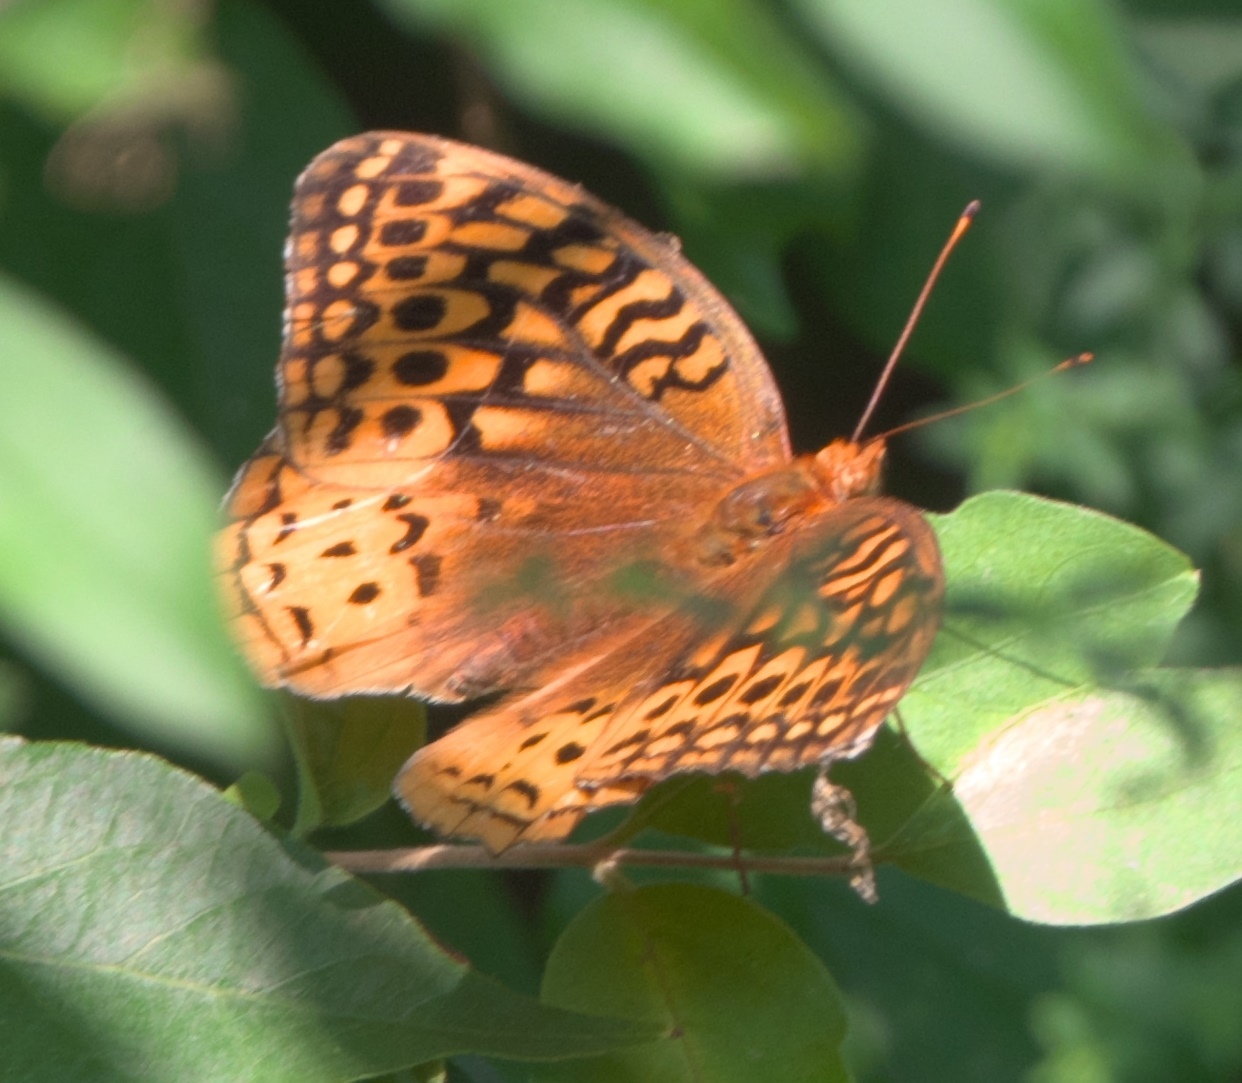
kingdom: Animalia
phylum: Arthropoda
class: Insecta
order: Lepidoptera
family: Nymphalidae
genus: Speyeria
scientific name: Speyeria cybele
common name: Great spangled fritillary
